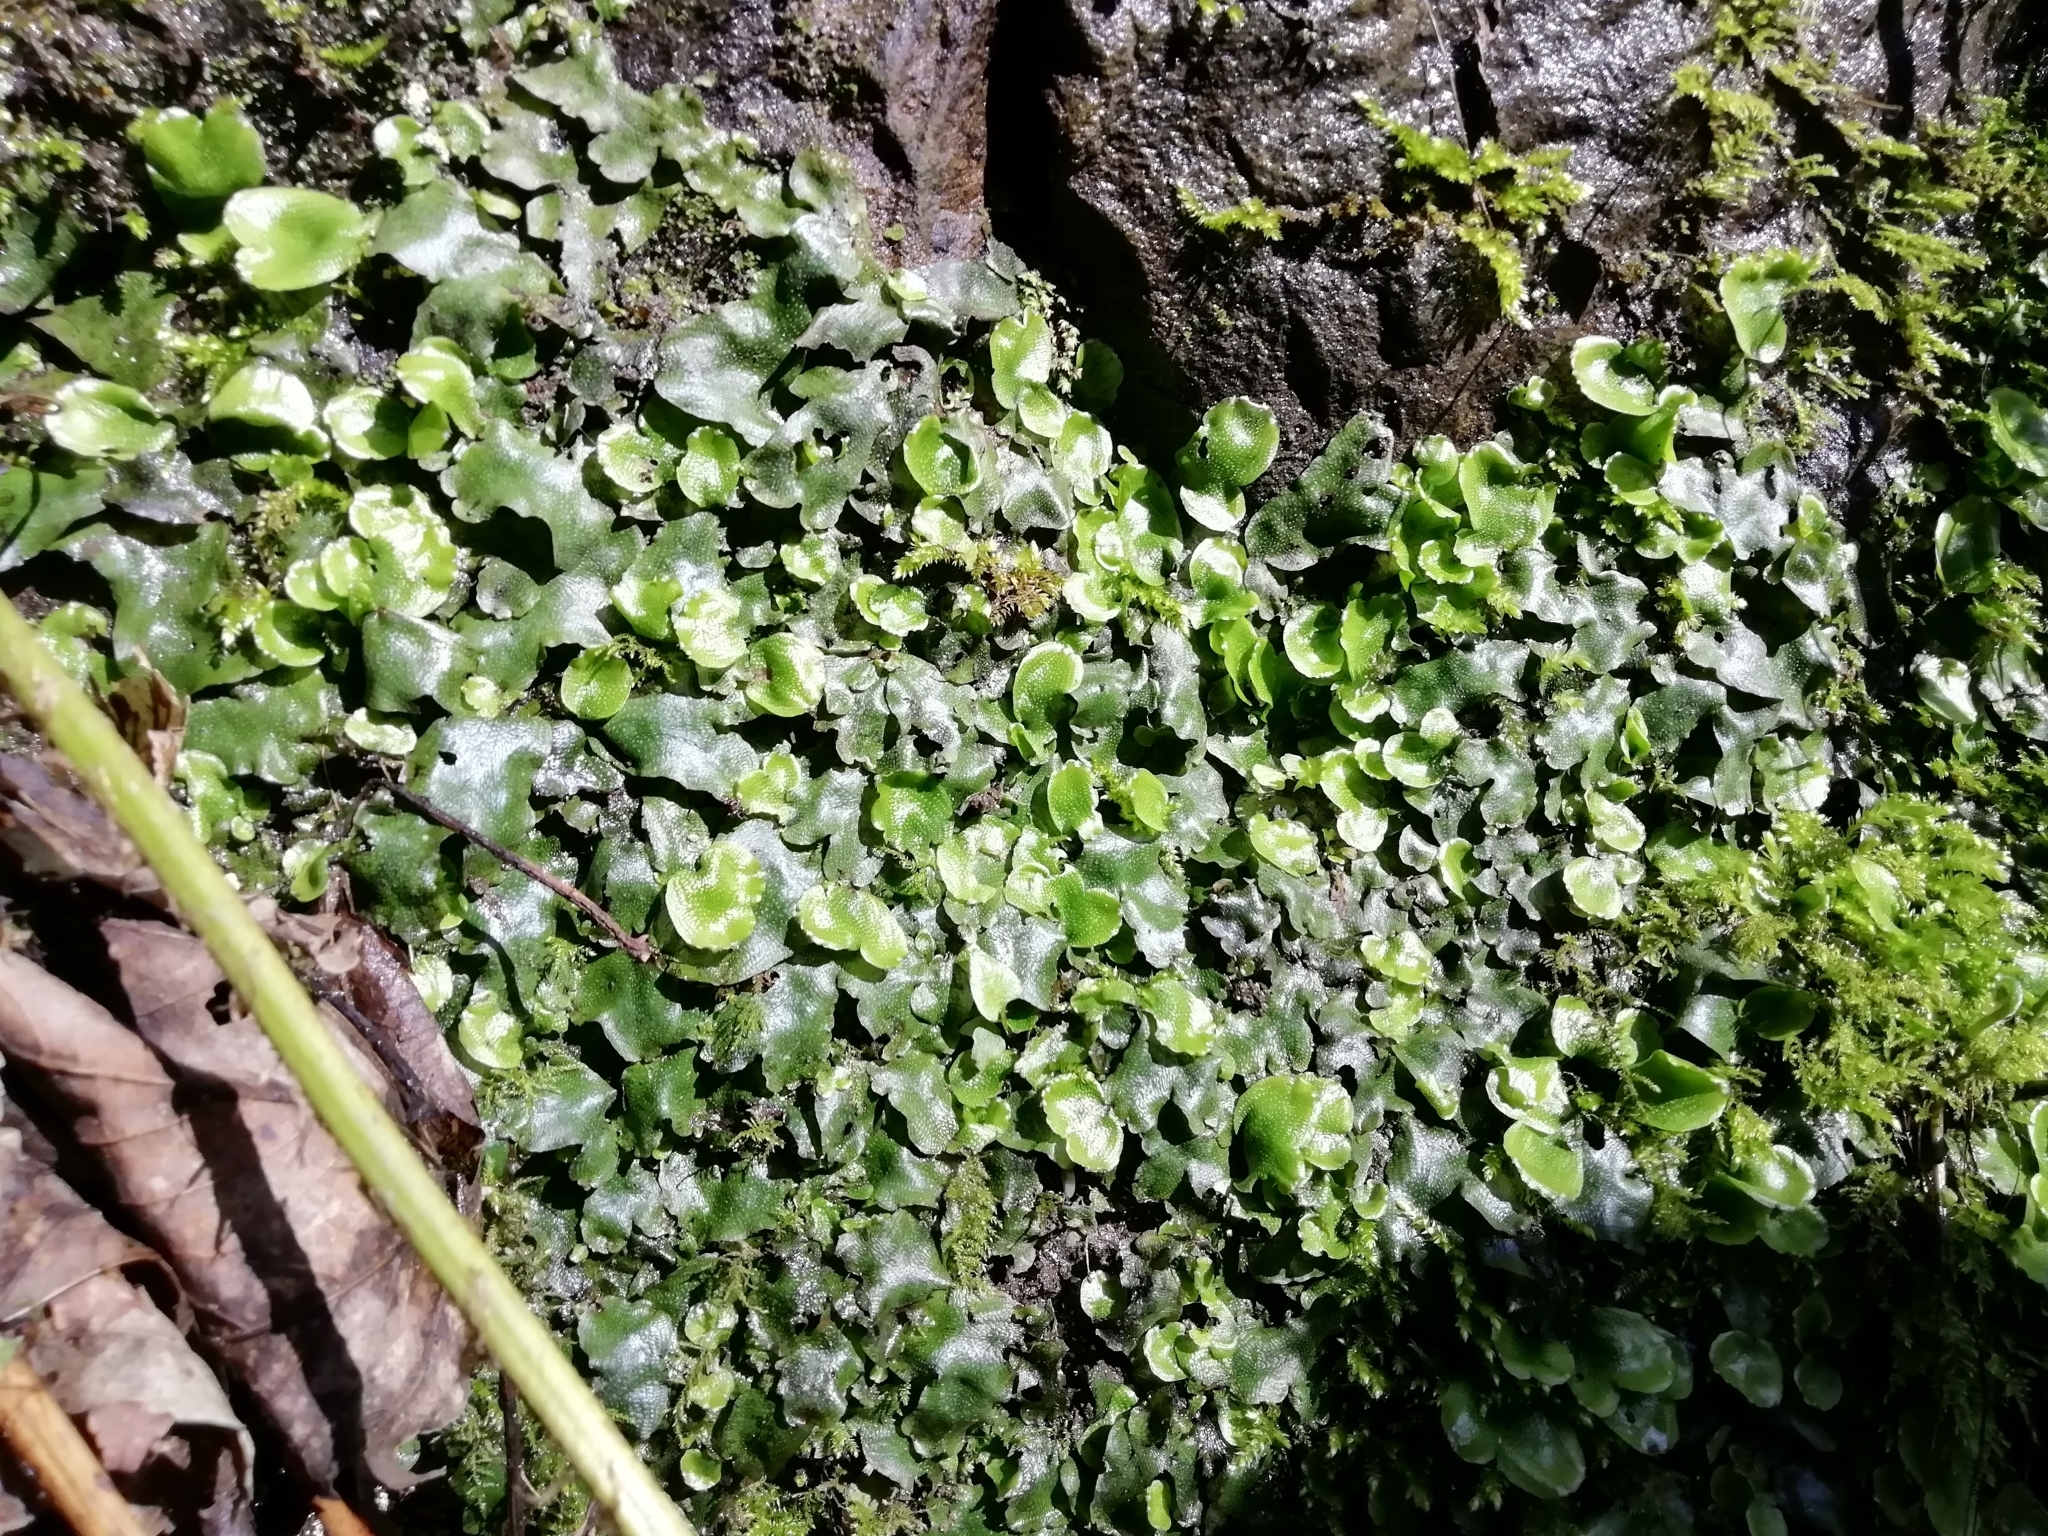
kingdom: Plantae
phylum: Marchantiophyta
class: Marchantiopsida
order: Marchantiales
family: Conocephalaceae
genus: Conocephalum
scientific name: Conocephalum conicum
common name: Great scented liverwort
